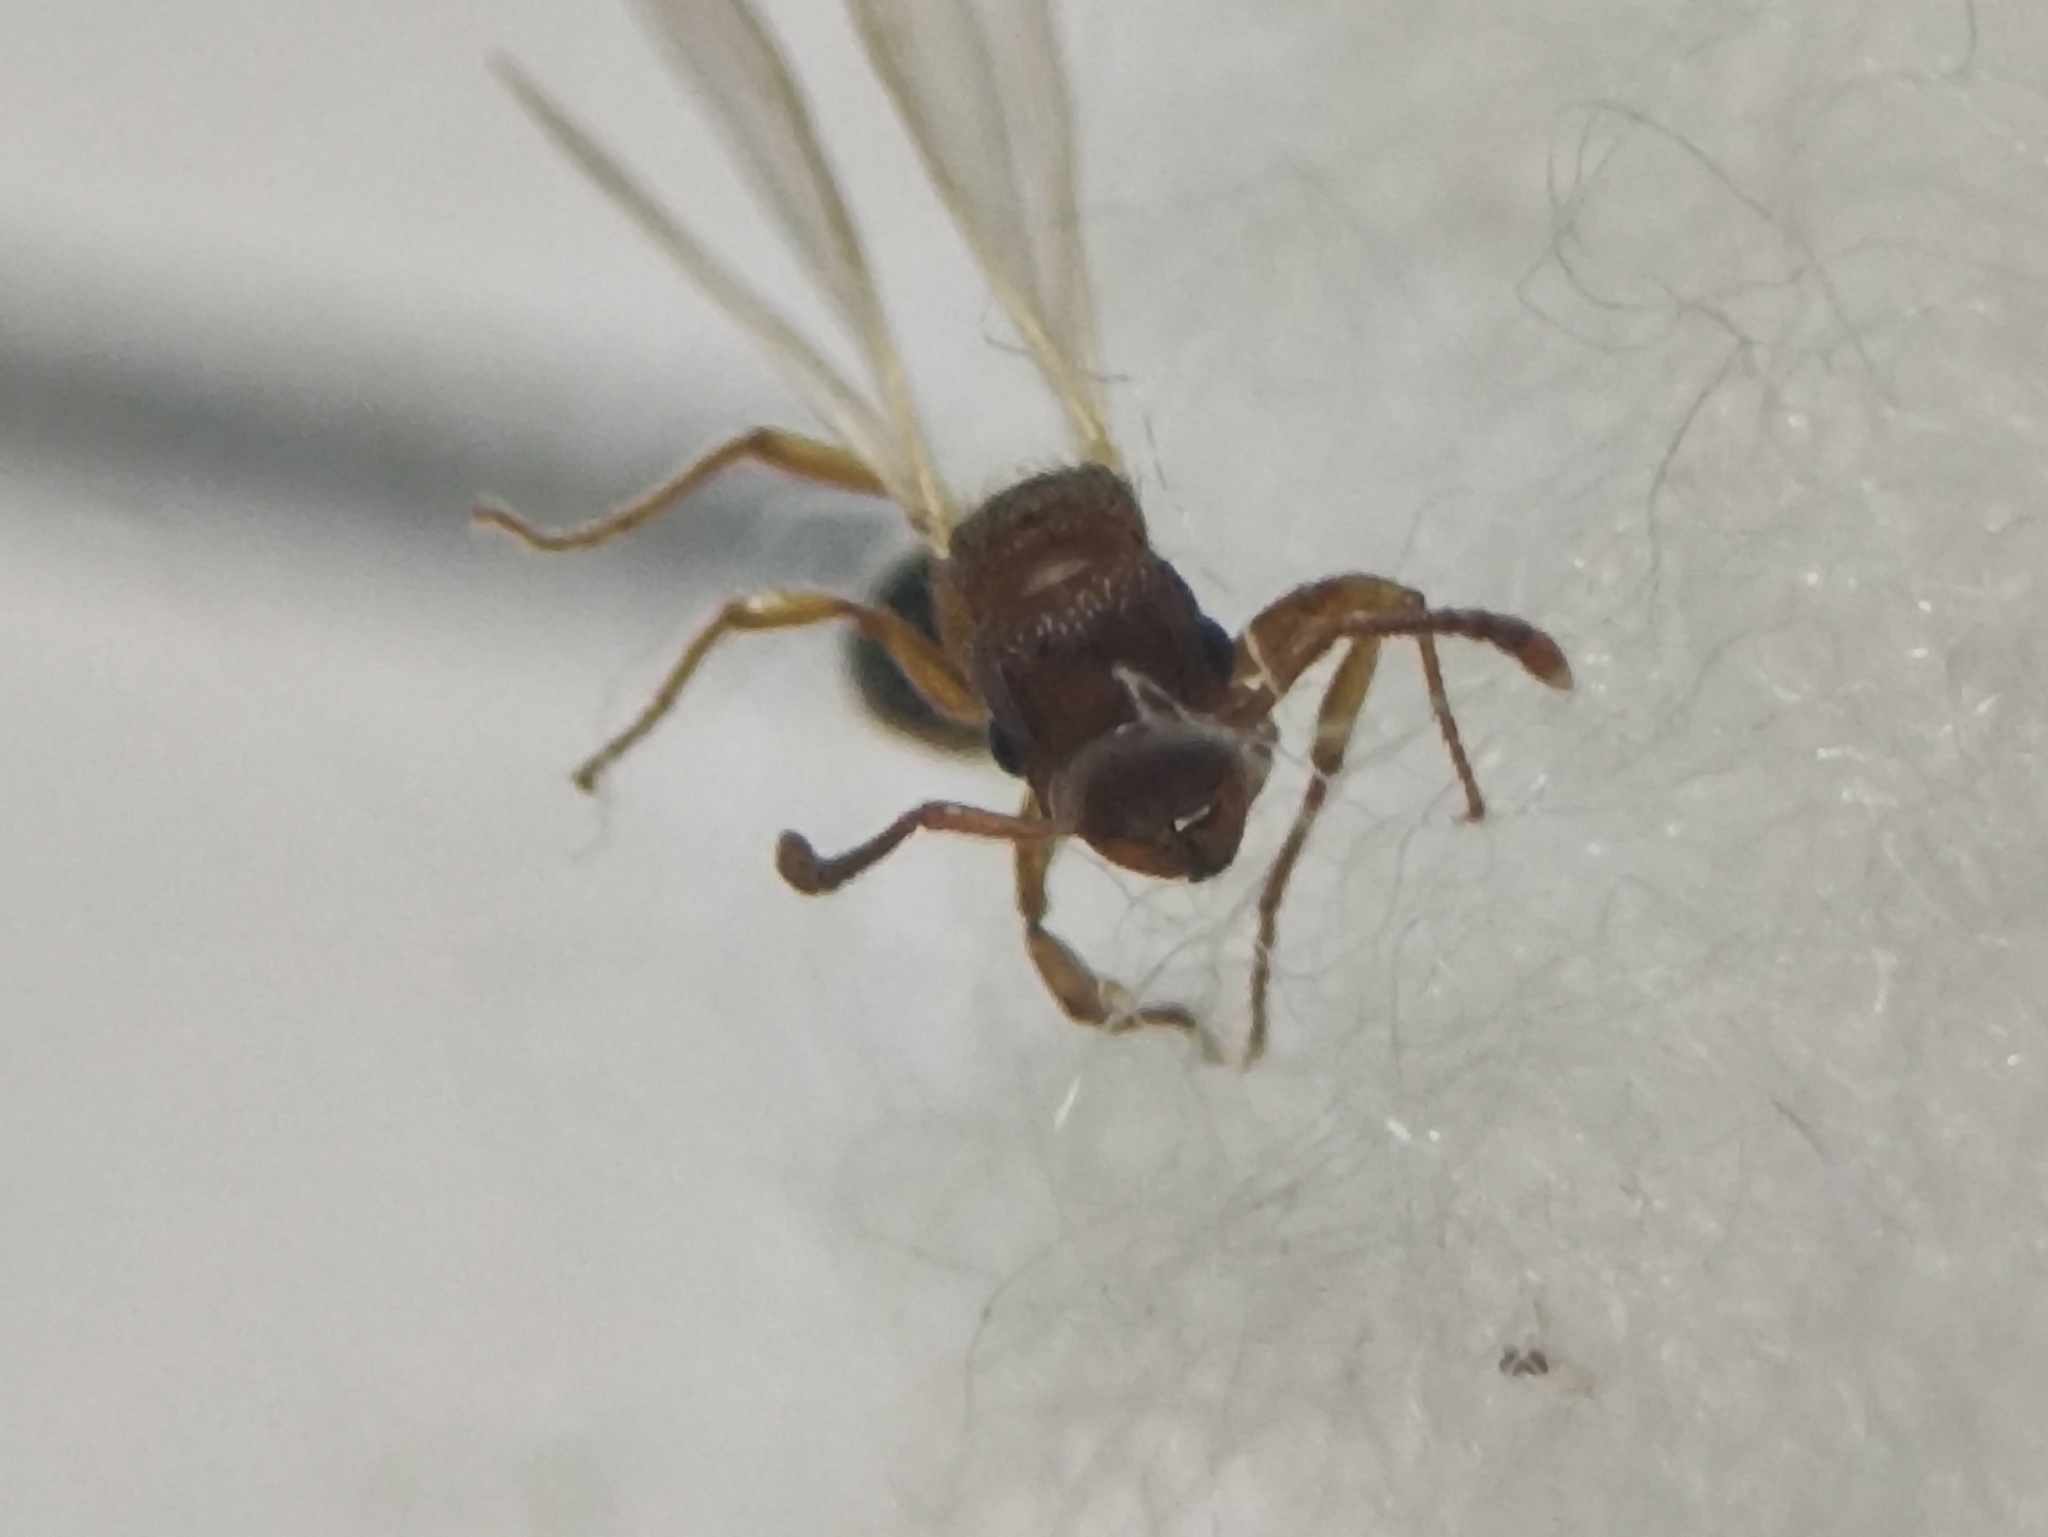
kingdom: Animalia
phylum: Arthropoda
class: Insecta
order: Hymenoptera
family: Formicidae
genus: Tetramorium
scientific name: Tetramorium bicarinatum
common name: Guinea ant
